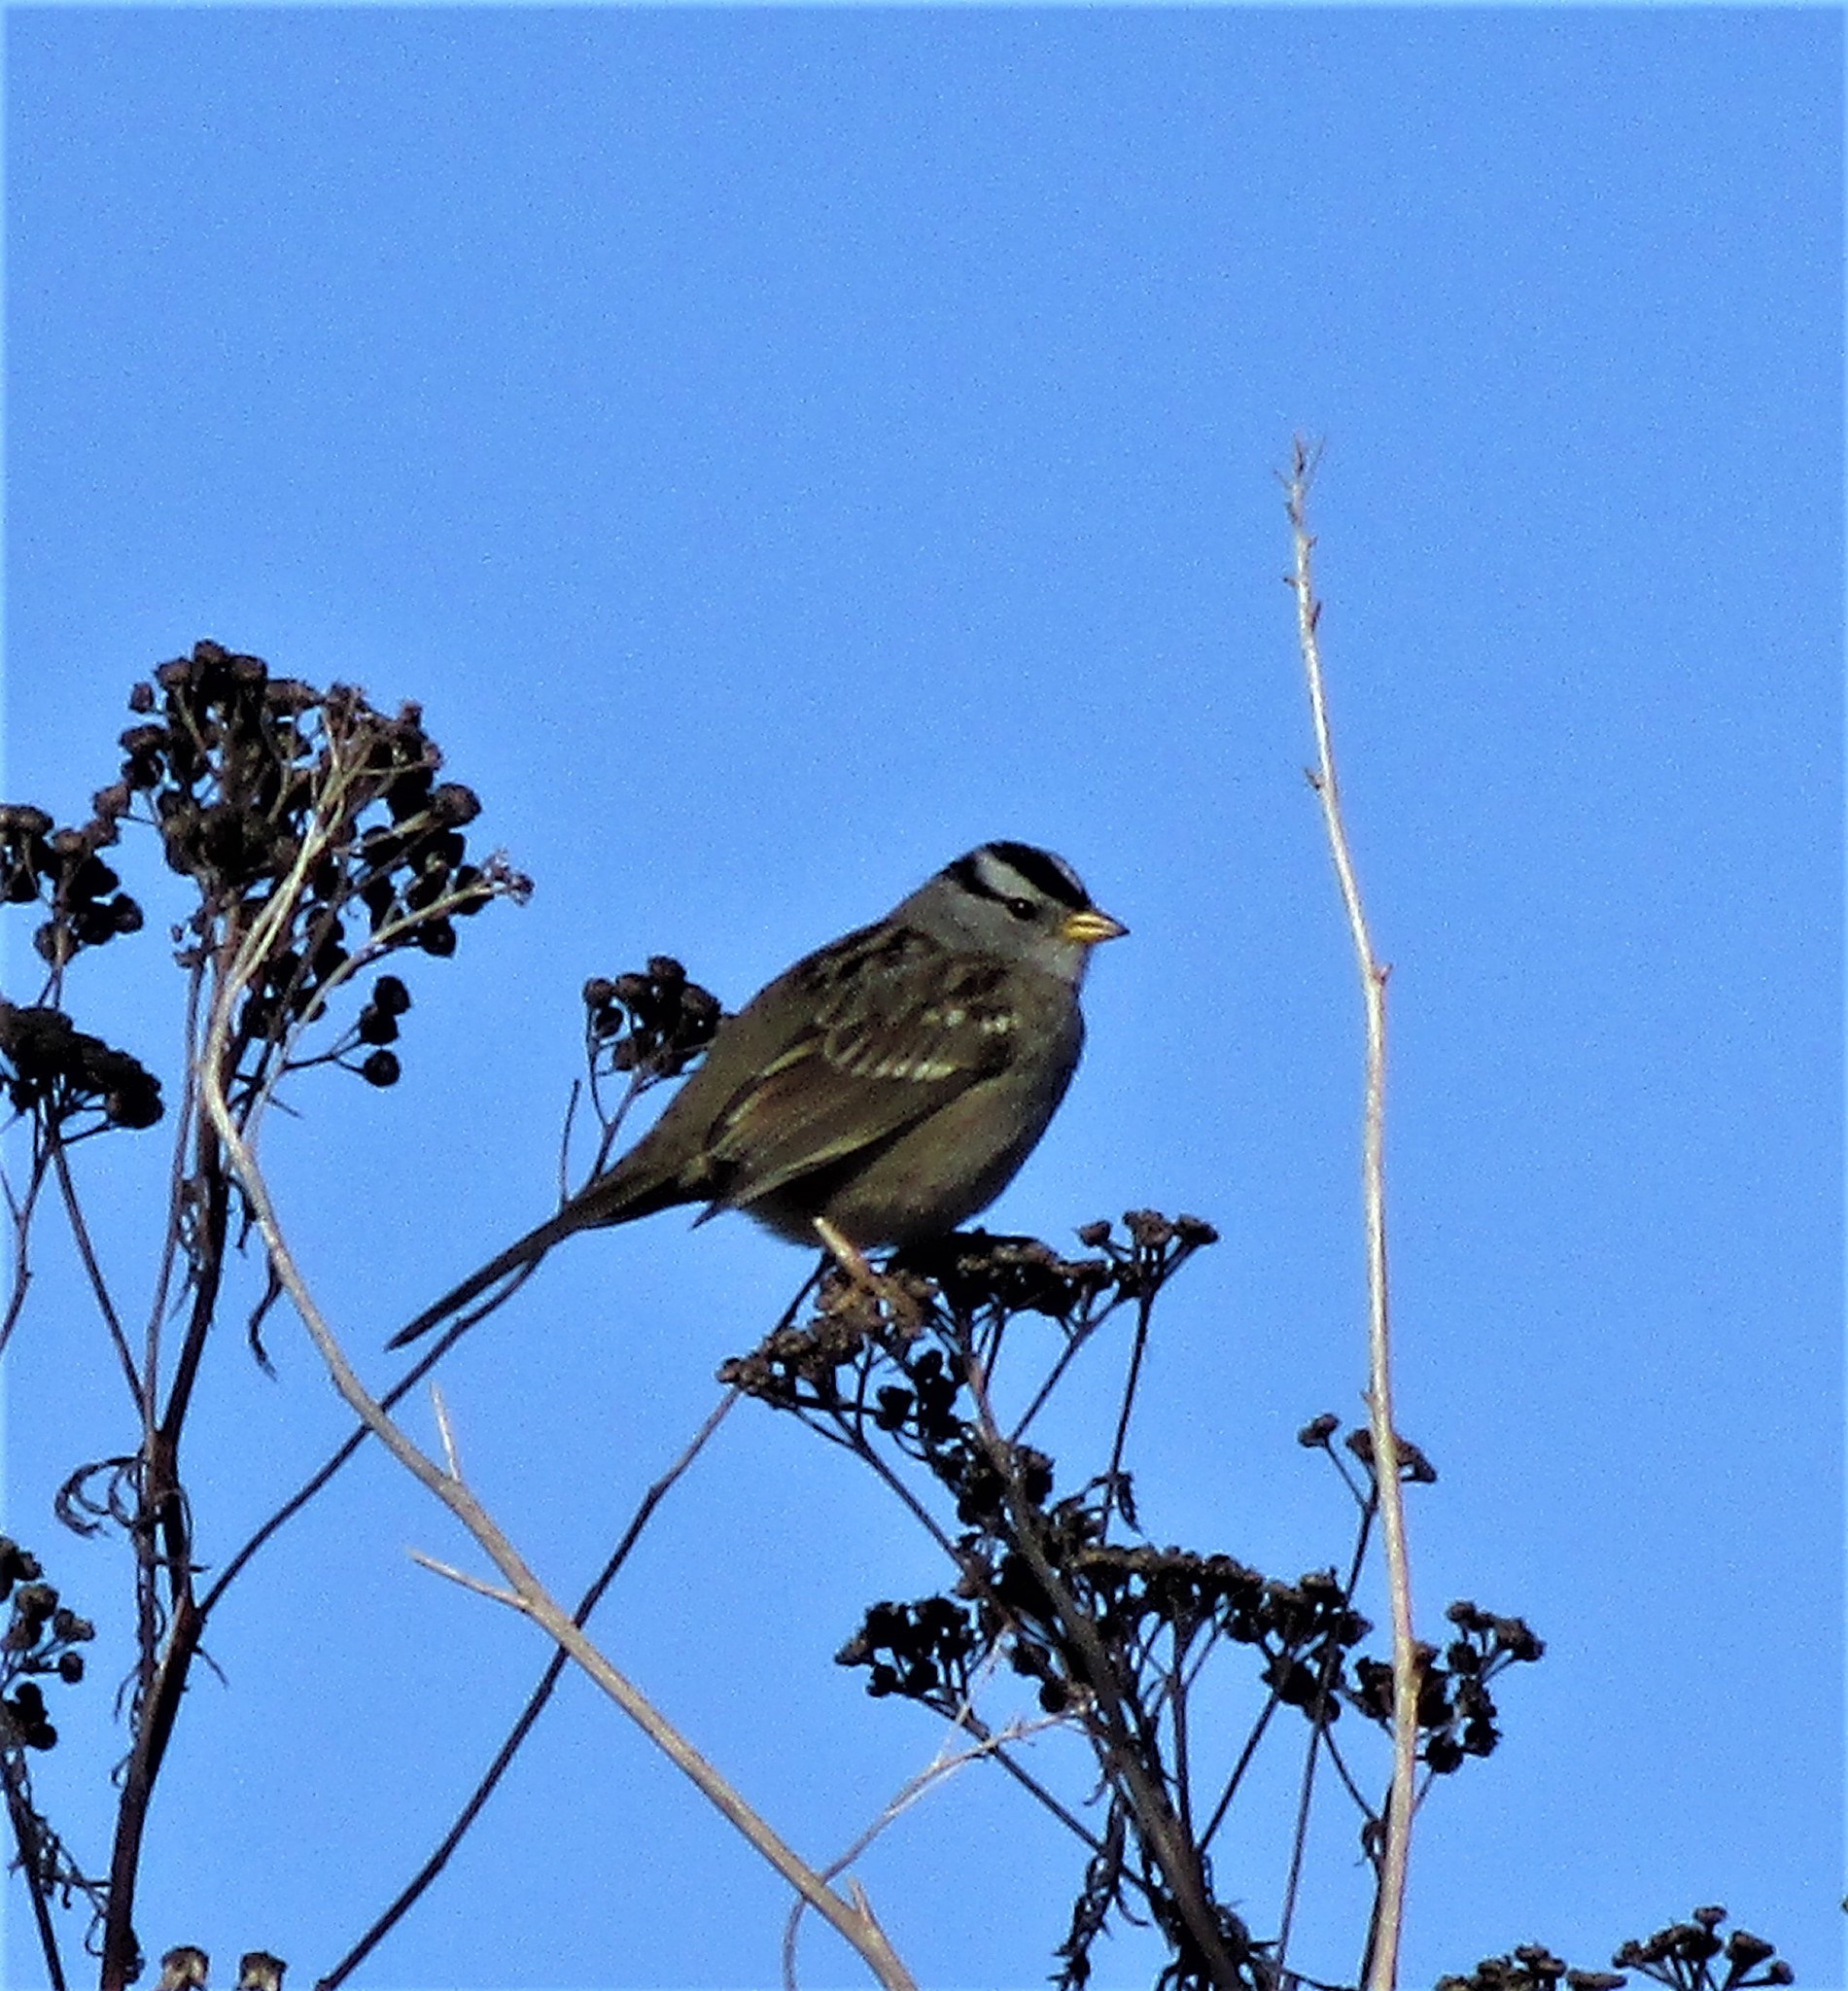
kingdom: Animalia
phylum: Chordata
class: Aves
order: Passeriformes
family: Passerellidae
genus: Zonotrichia
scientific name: Zonotrichia leucophrys
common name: White-crowned sparrow
